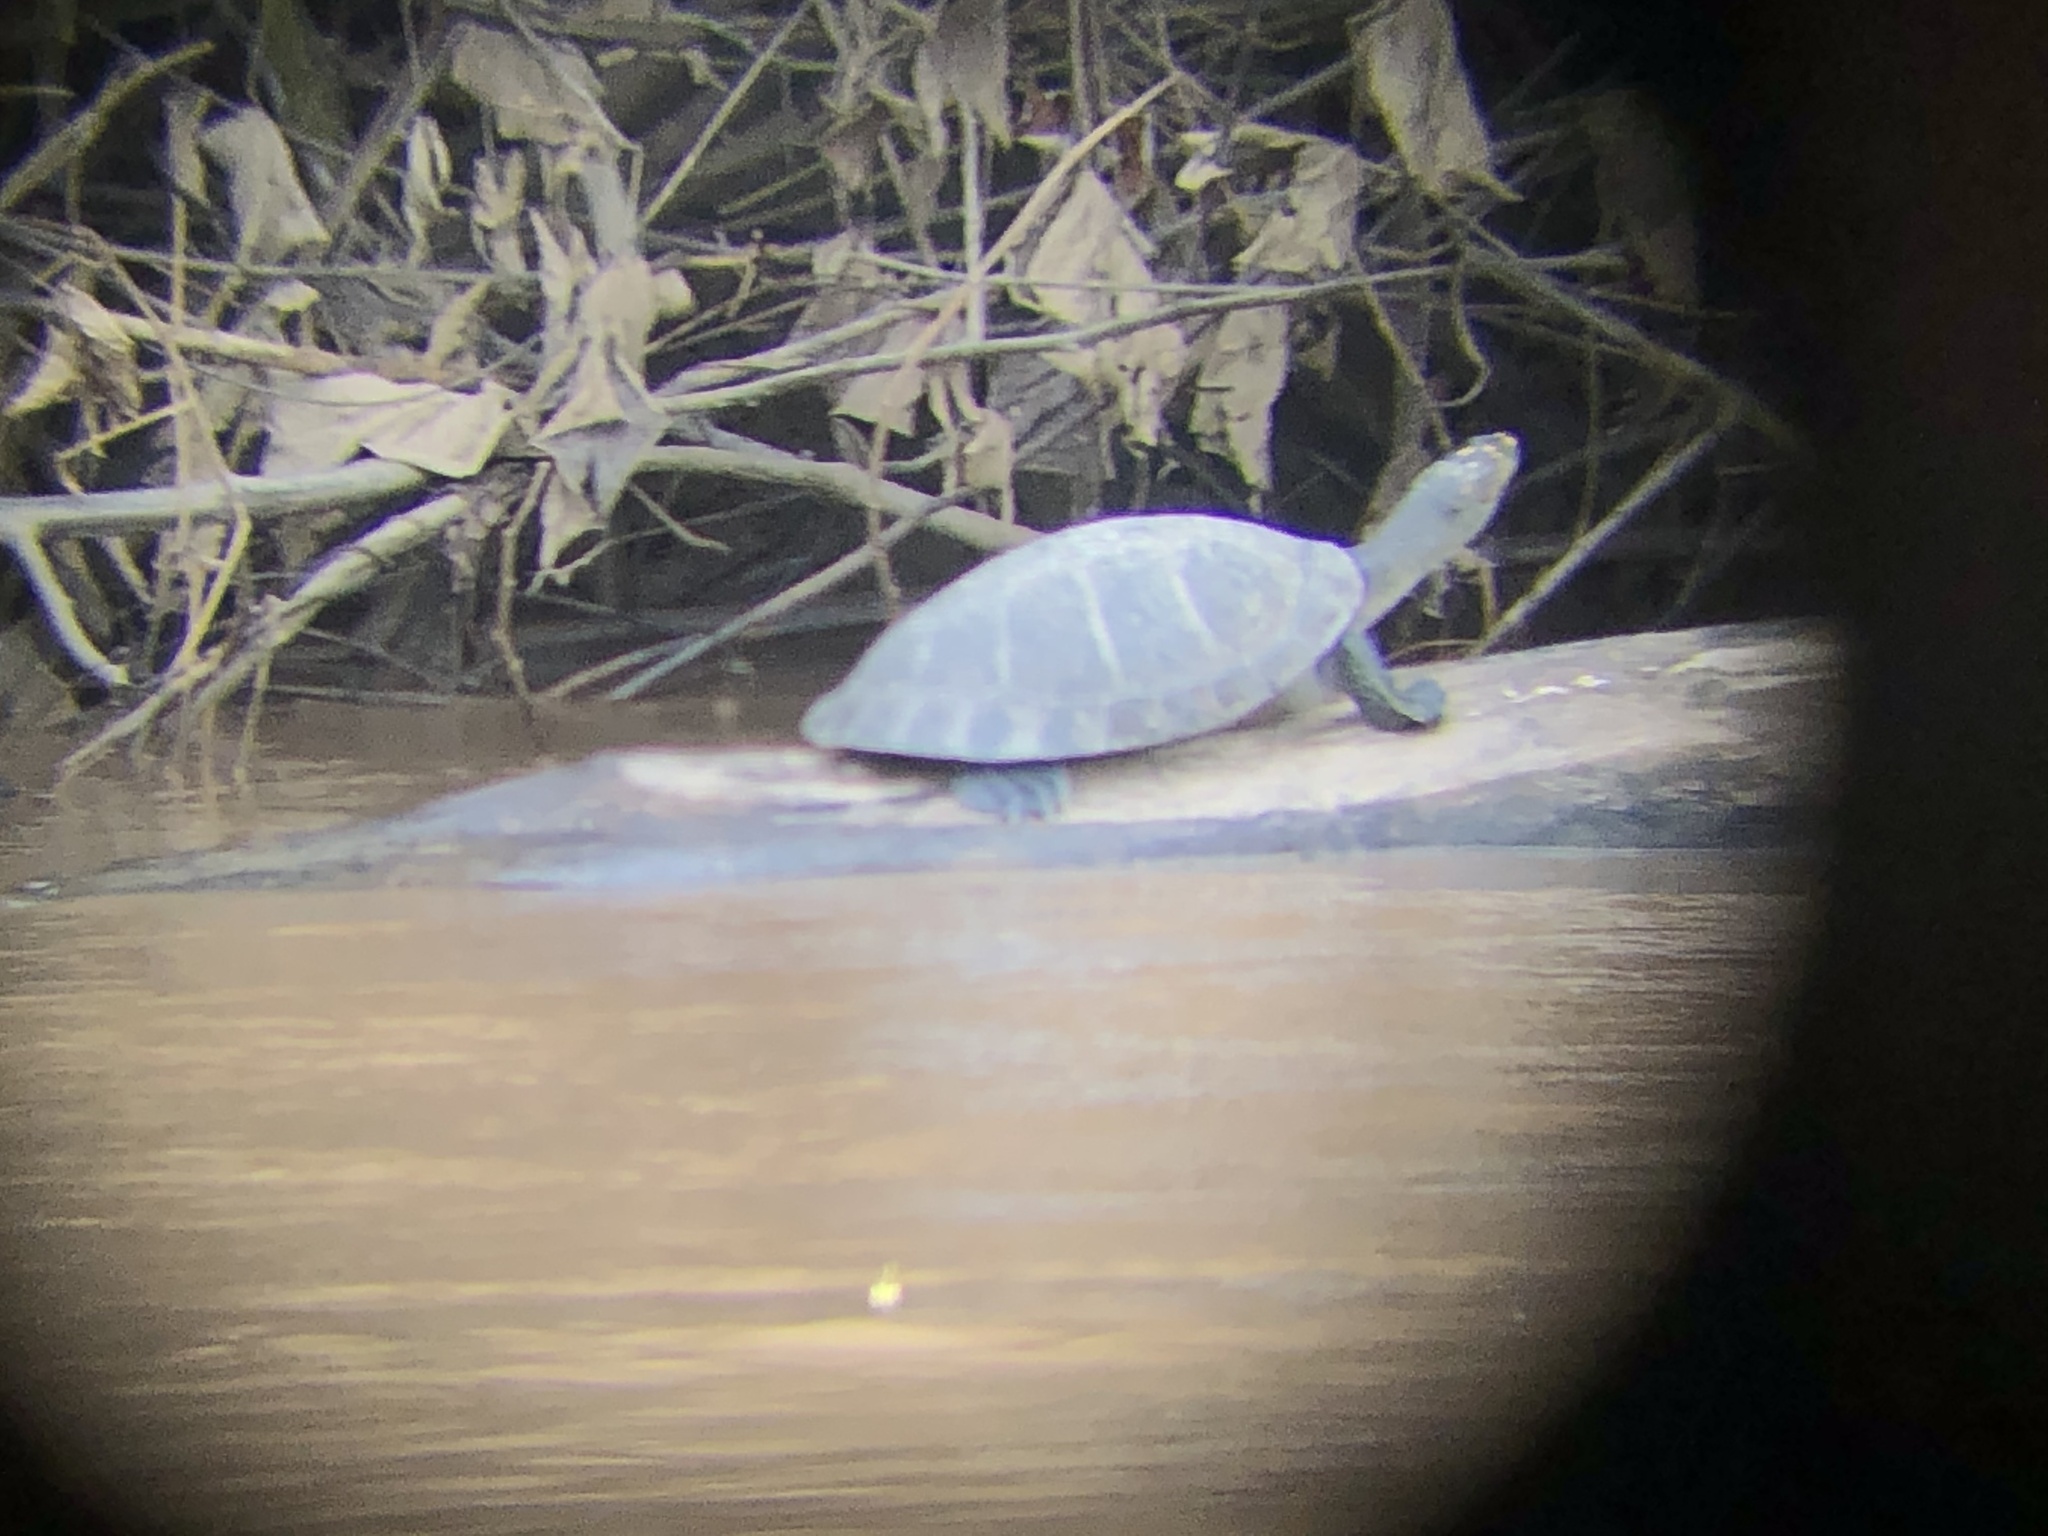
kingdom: Animalia
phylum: Chordata
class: Testudines
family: Podocnemididae
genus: Podocnemis
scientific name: Podocnemis unifilis
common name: Yellow-spotted amazon river turtle
